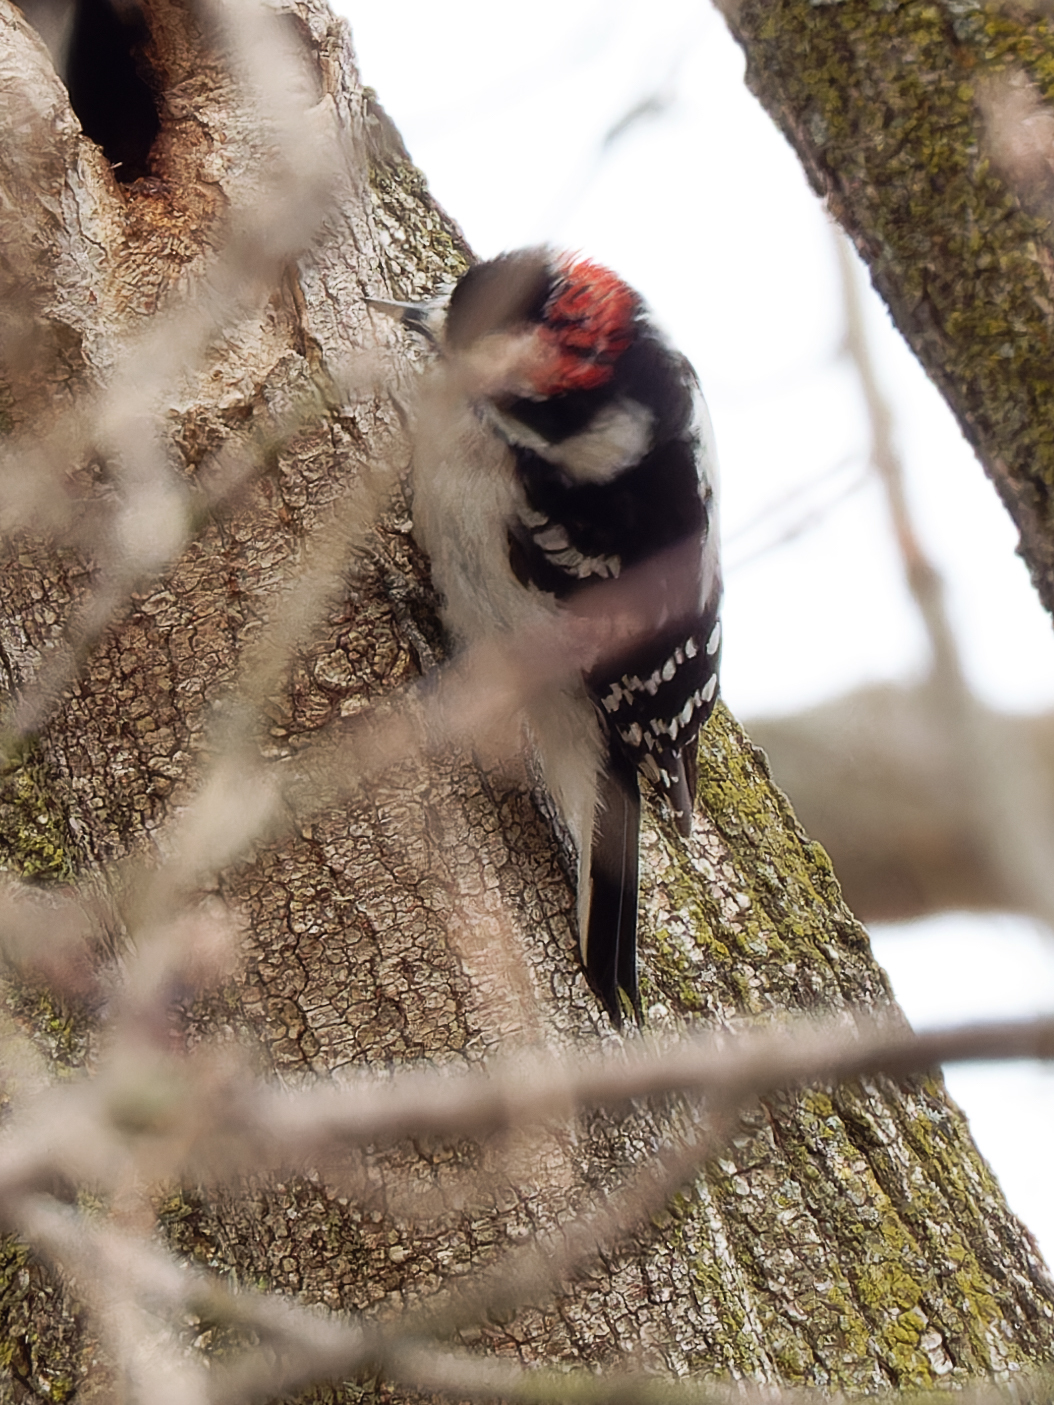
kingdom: Animalia
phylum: Chordata
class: Aves
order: Piciformes
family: Picidae
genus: Dryobates
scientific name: Dryobates pubescens
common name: Downy woodpecker
